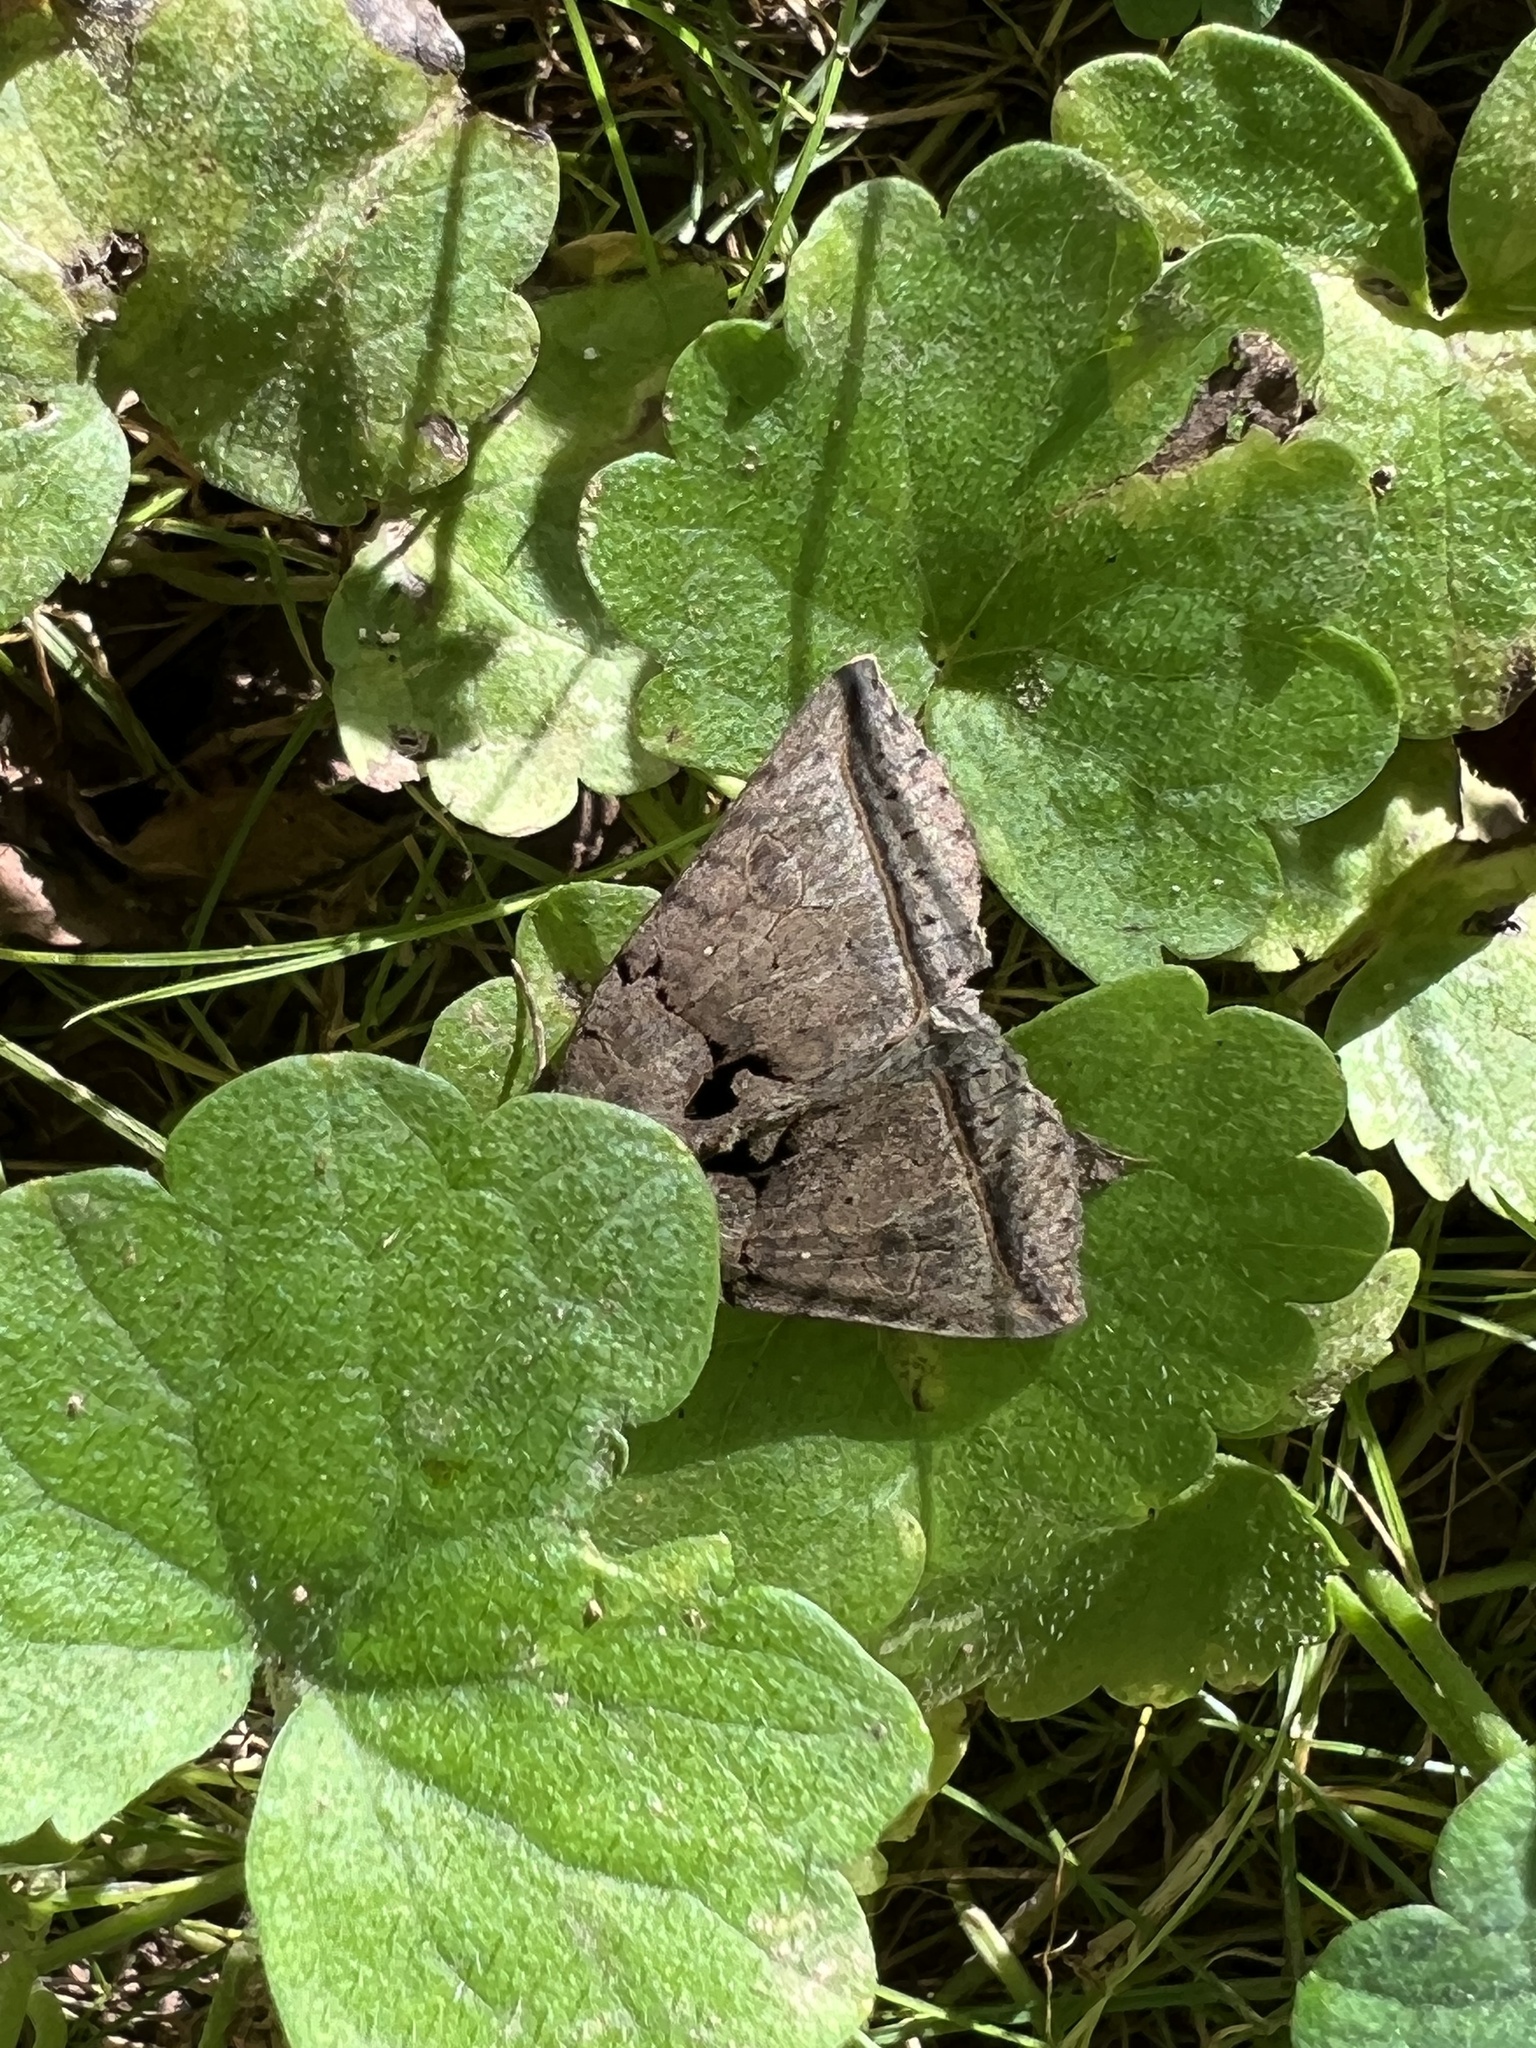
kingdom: Animalia
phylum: Arthropoda
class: Insecta
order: Lepidoptera
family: Erebidae
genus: Celiptera
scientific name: Celiptera frustulum
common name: Black bit moth
